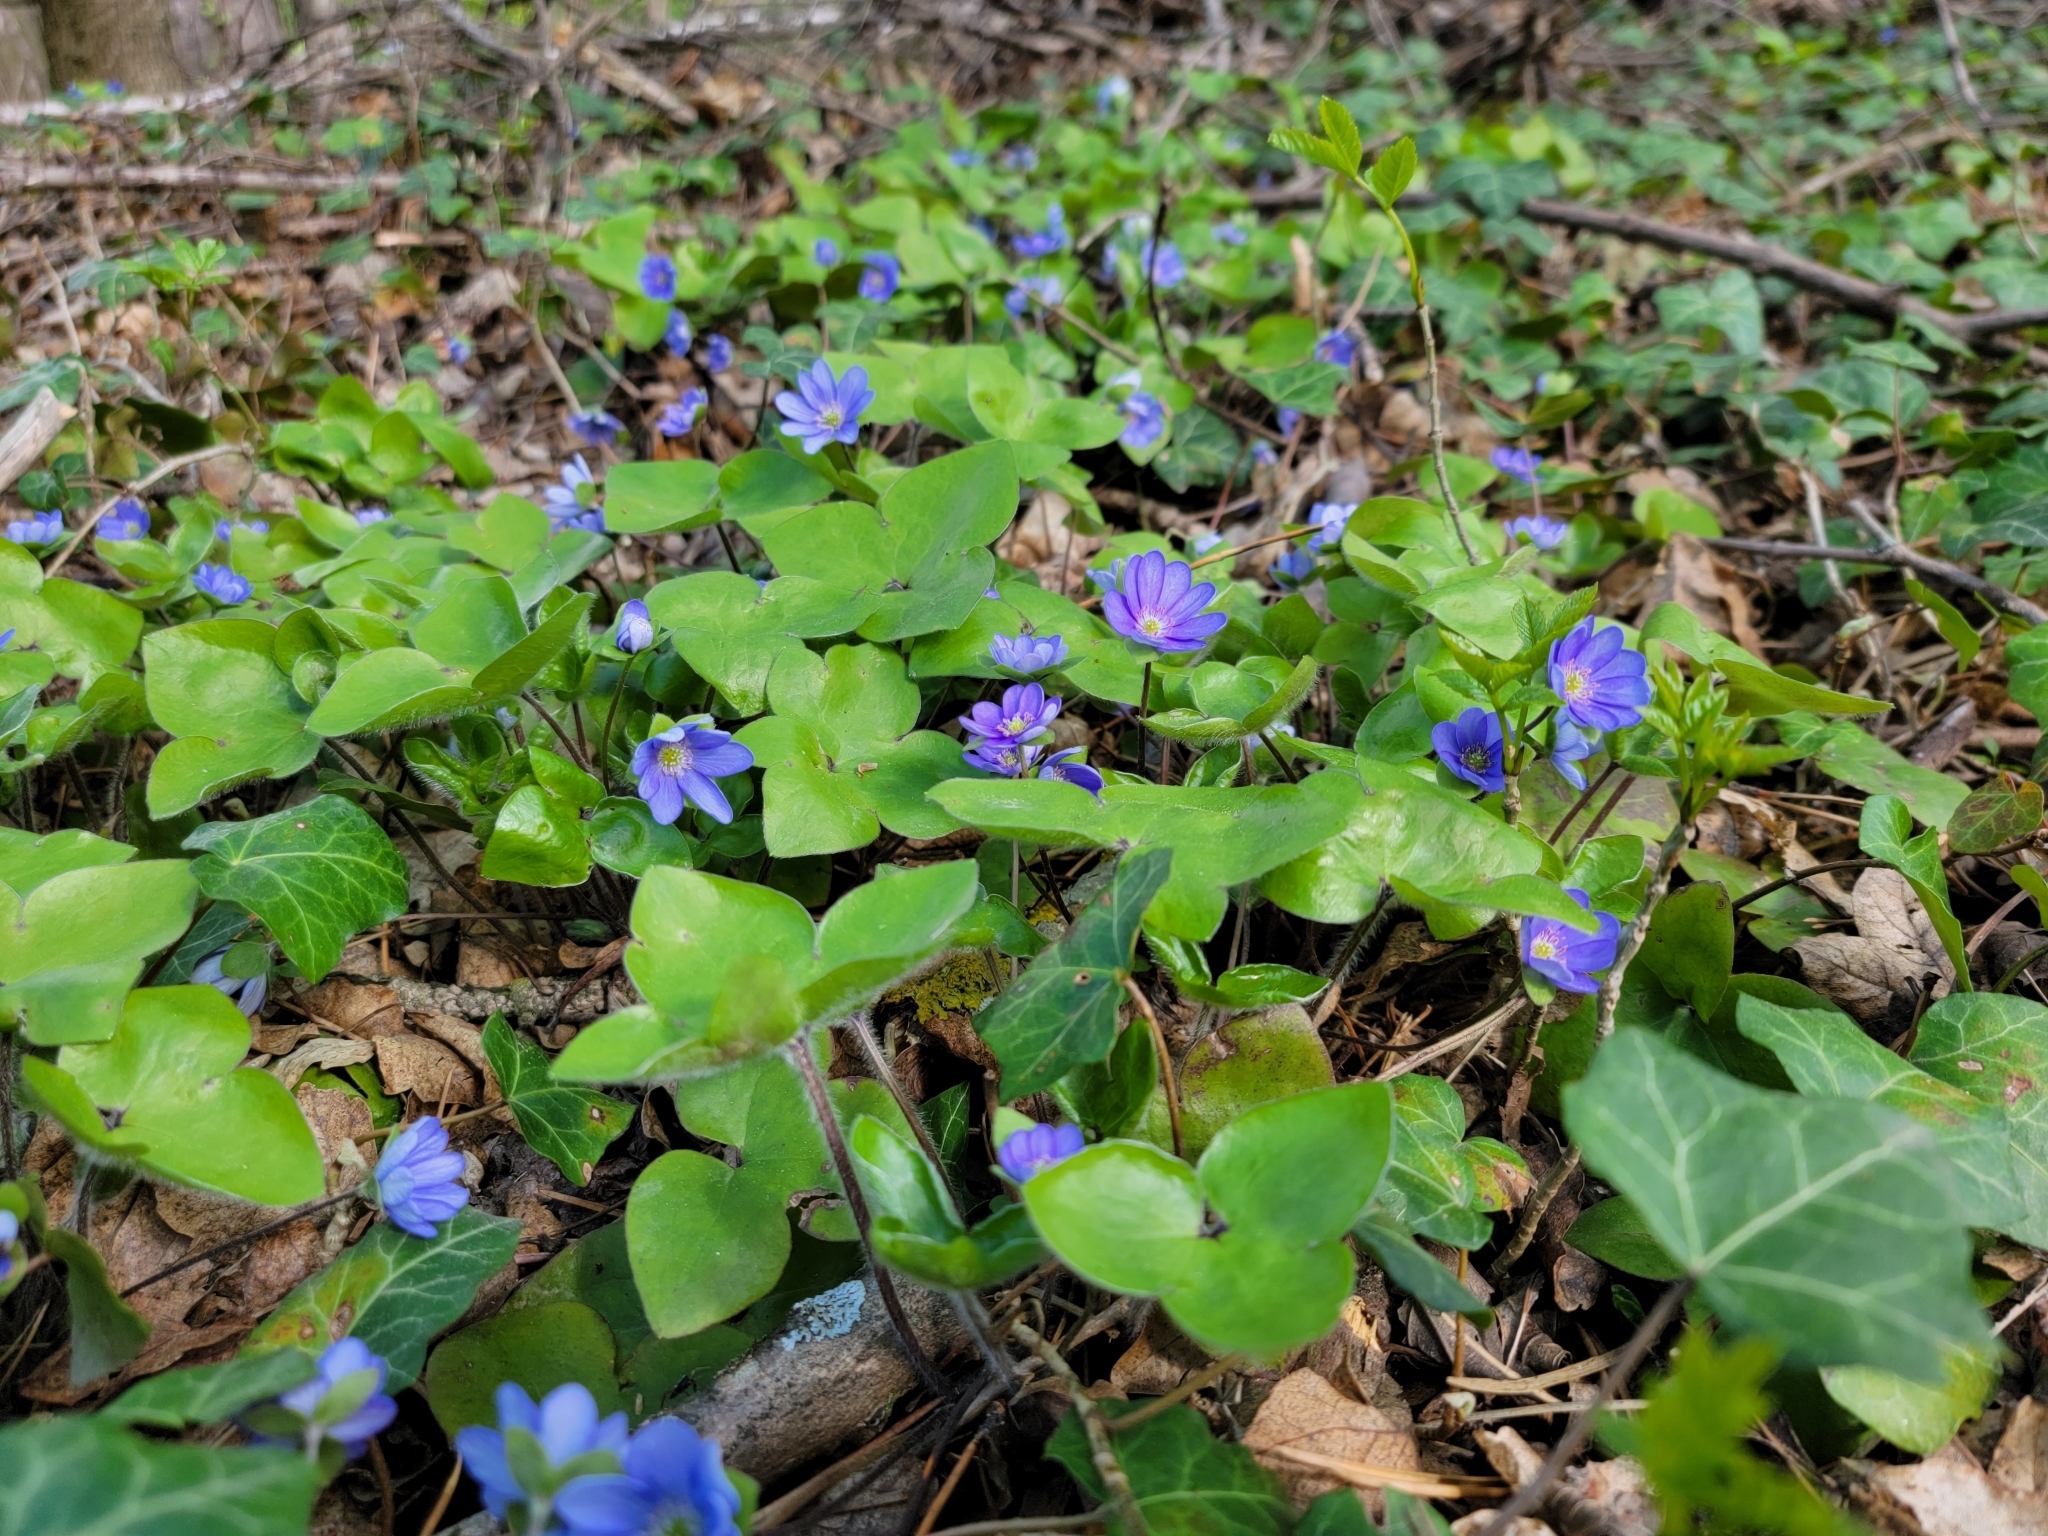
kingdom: Plantae
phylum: Tracheophyta
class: Magnoliopsida
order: Ranunculales
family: Ranunculaceae
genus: Hepatica
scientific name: Hepatica nobilis
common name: Liverleaf
